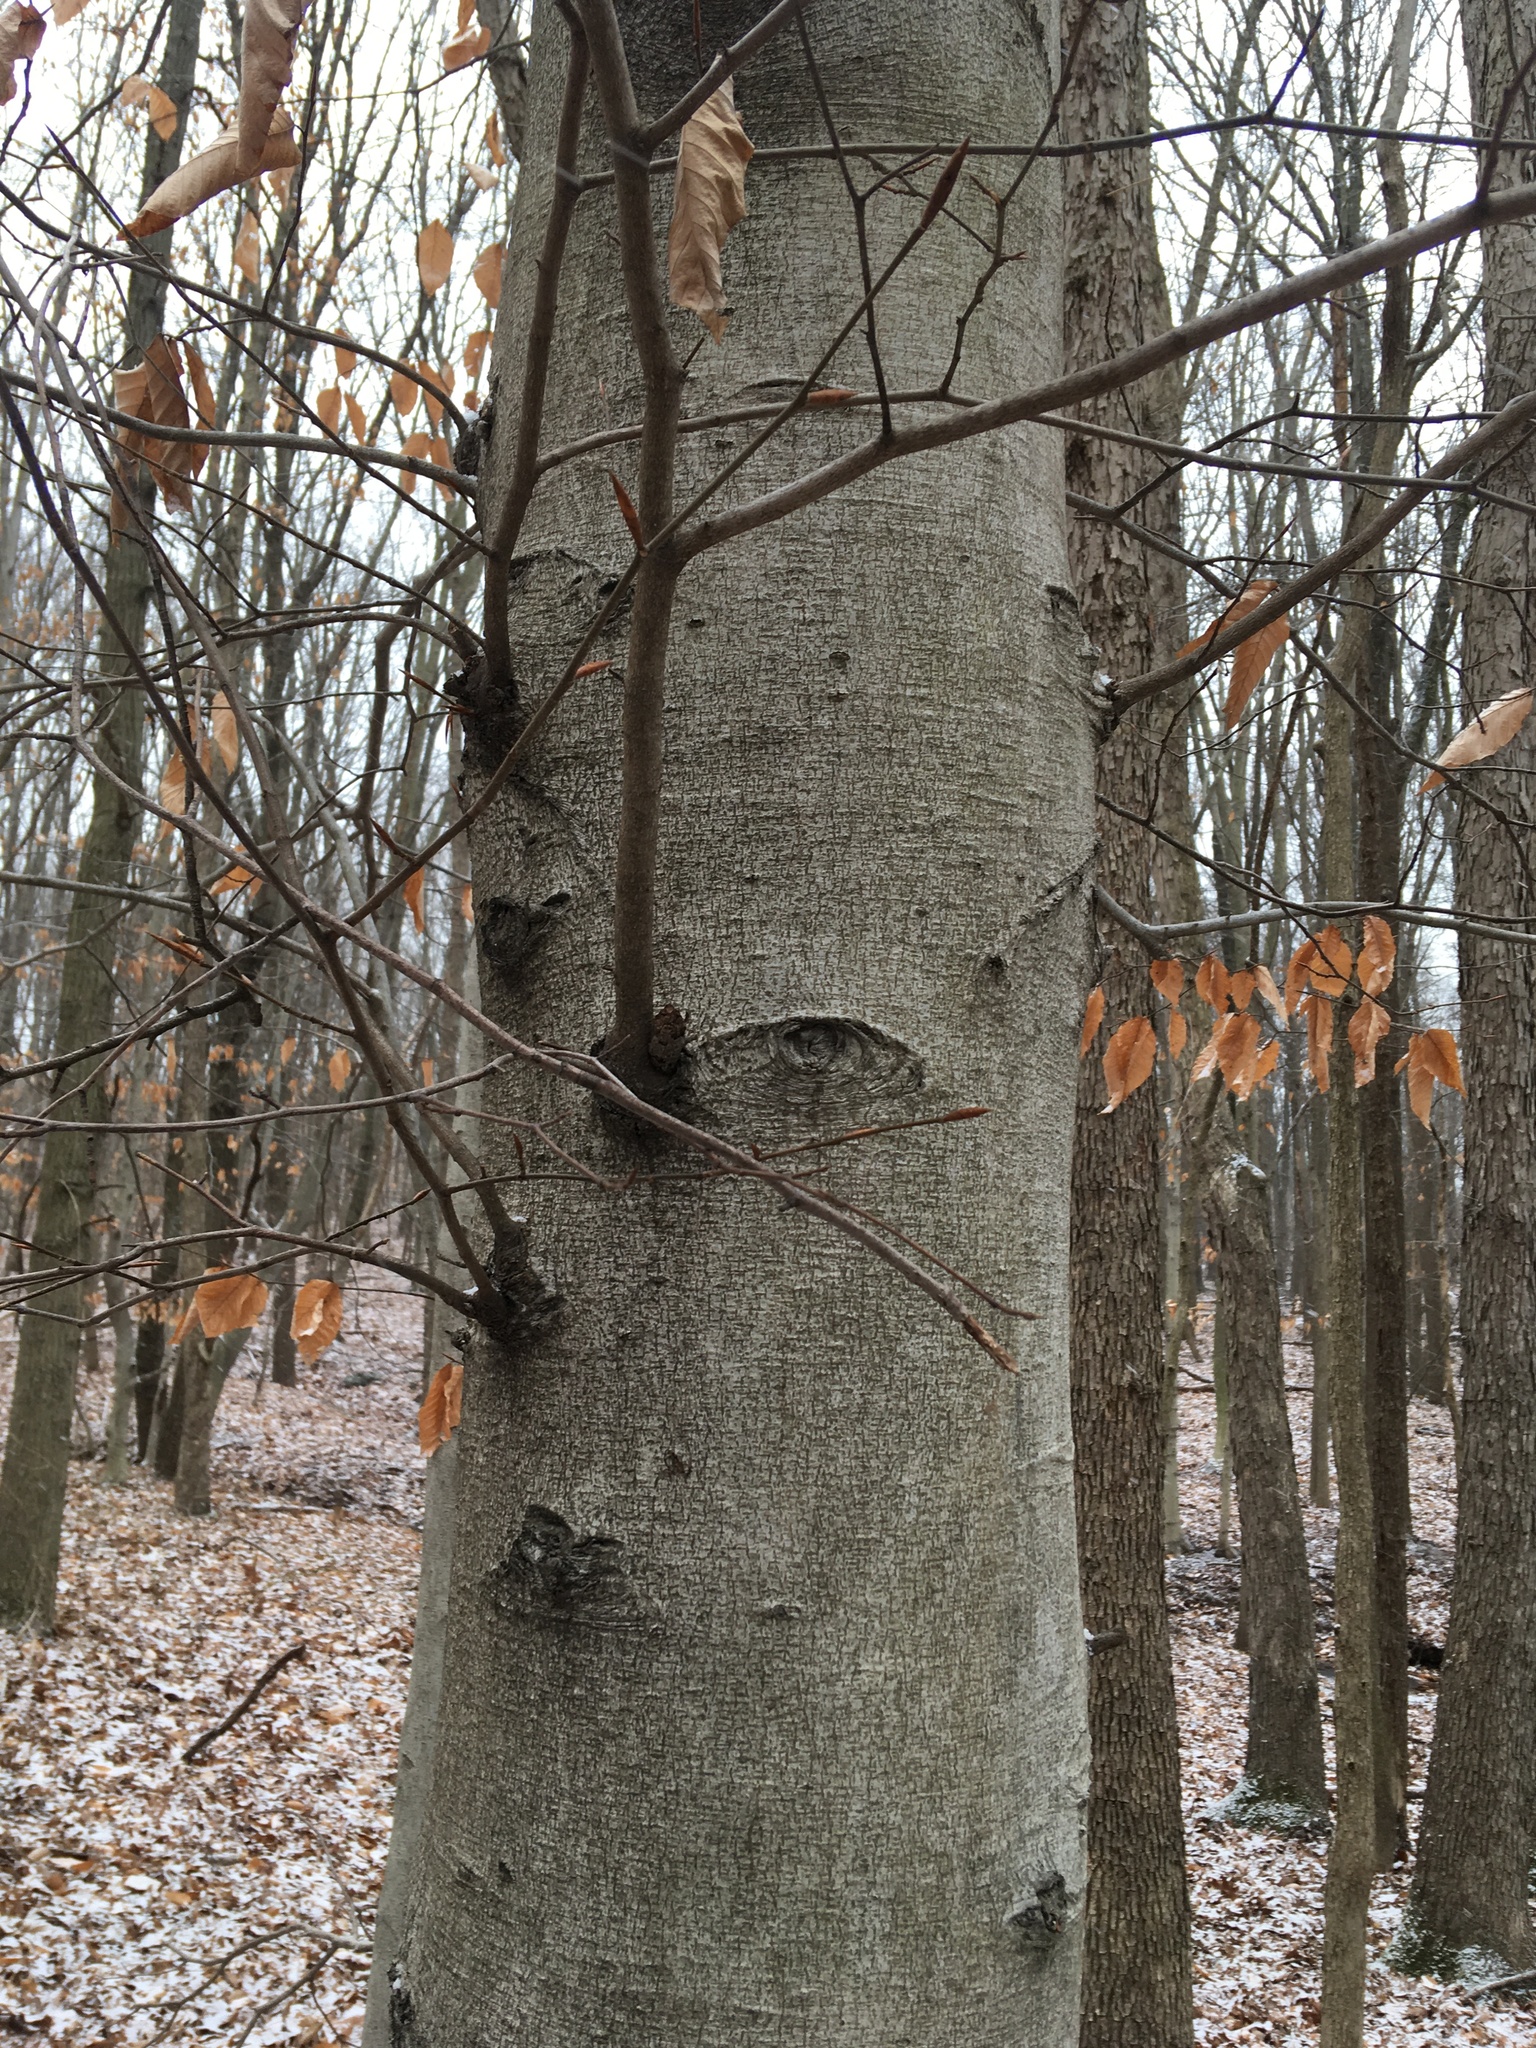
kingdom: Plantae
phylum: Tracheophyta
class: Magnoliopsida
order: Fagales
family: Fagaceae
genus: Fagus
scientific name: Fagus grandifolia
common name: American beech
